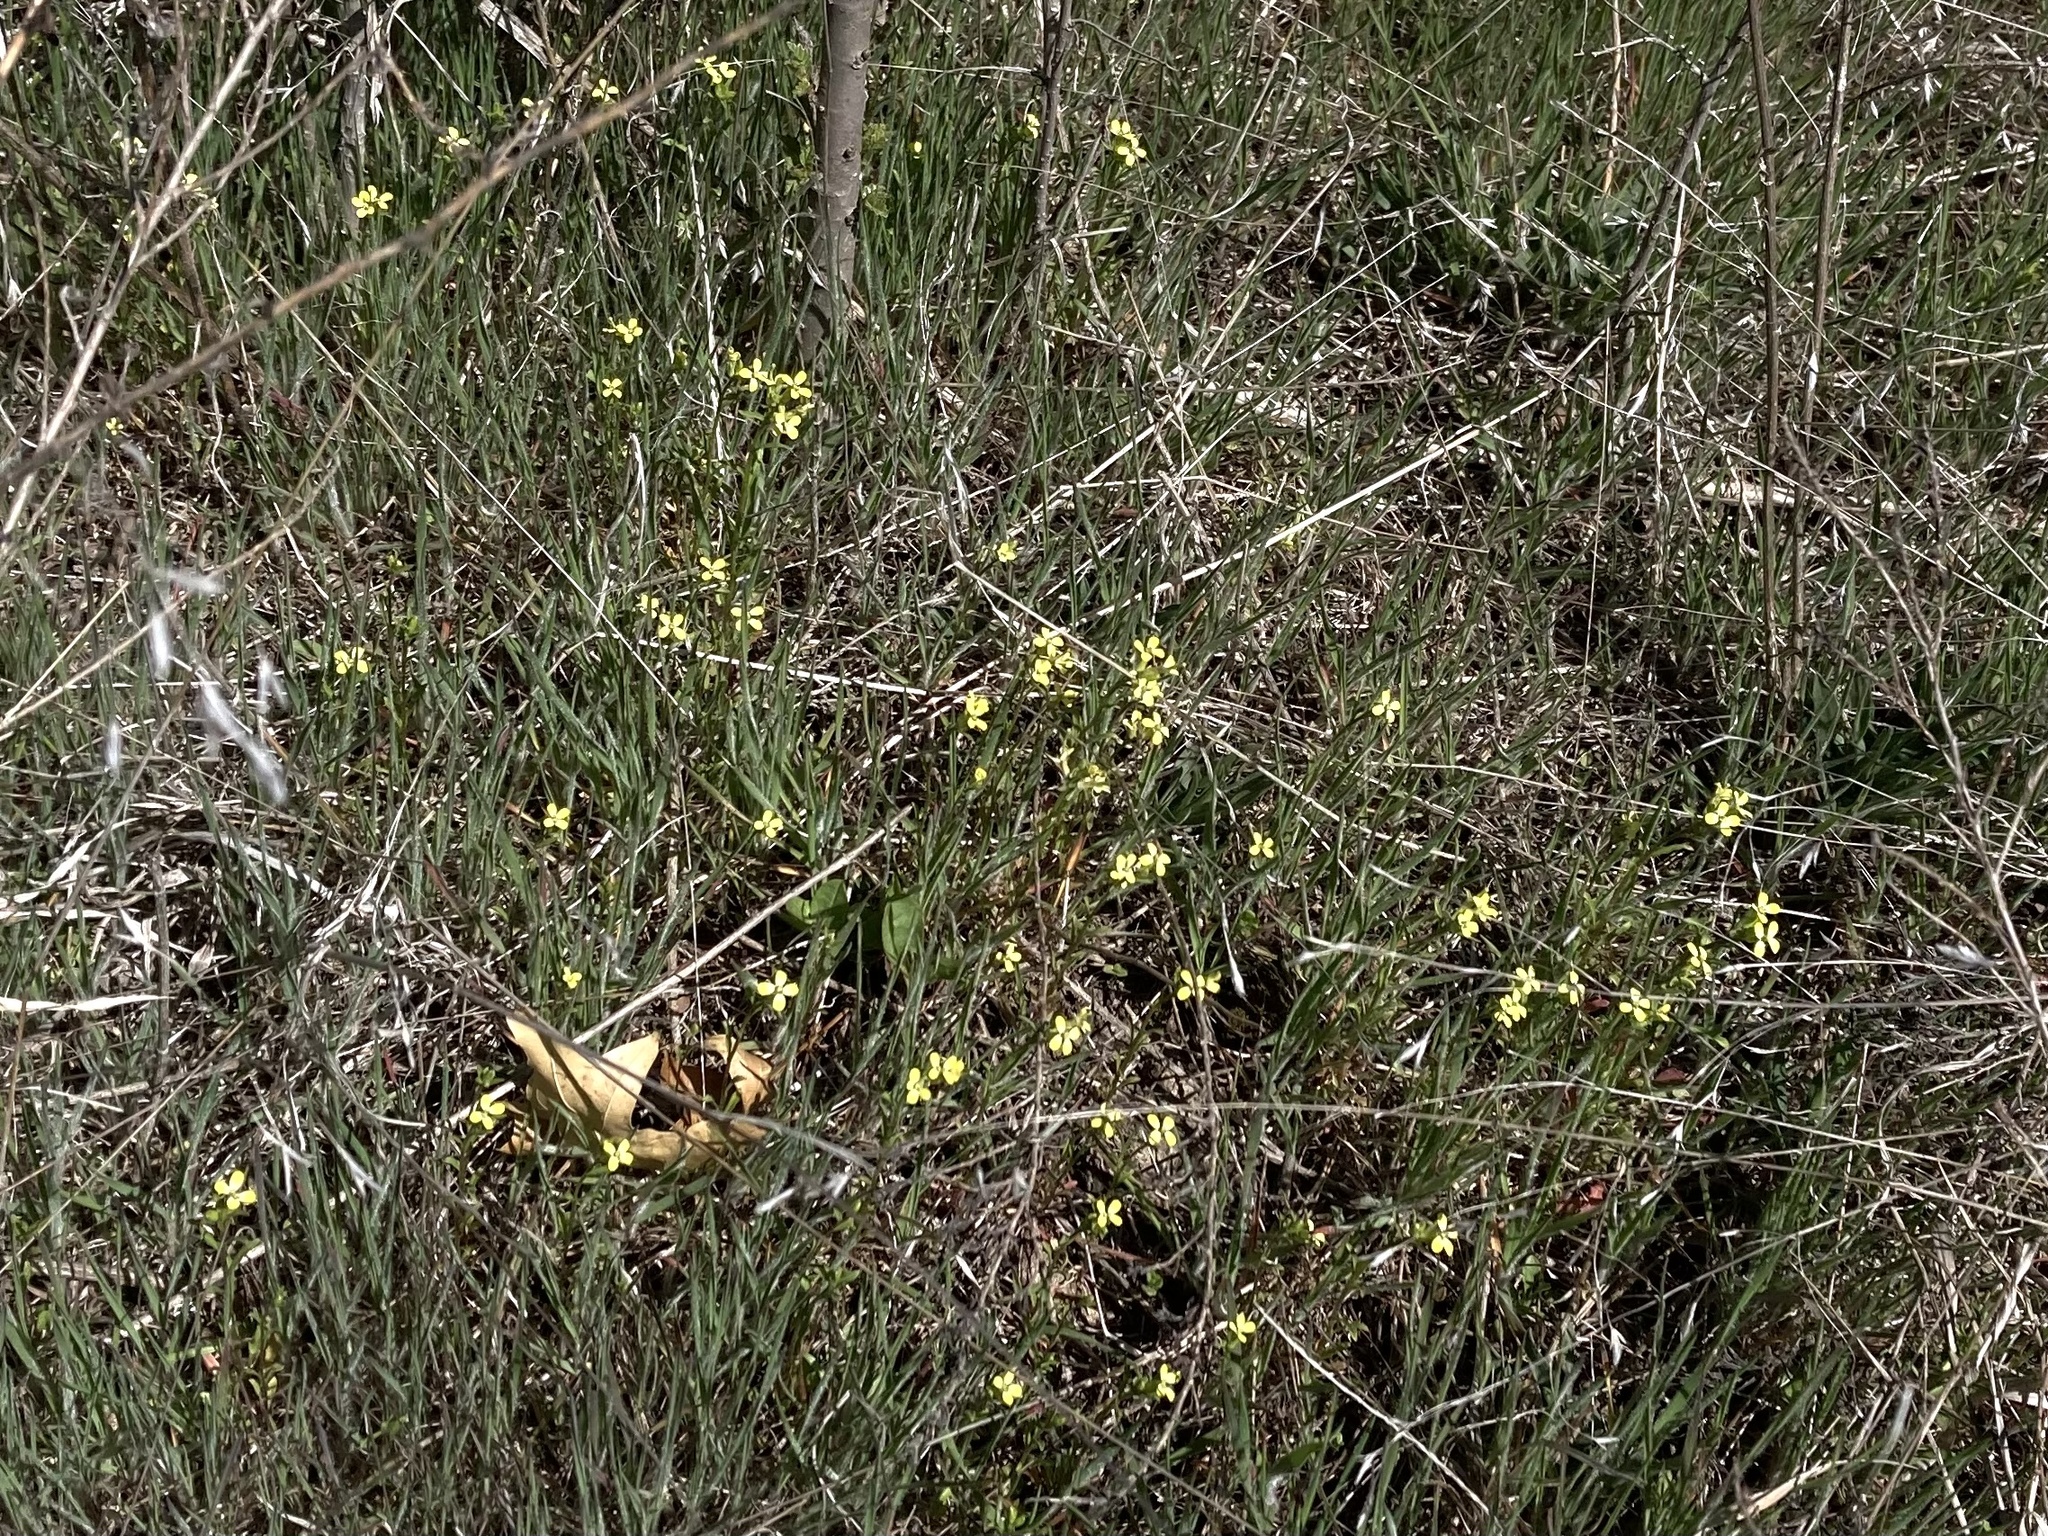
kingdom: Plantae
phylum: Tracheophyta
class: Magnoliopsida
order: Malpighiales
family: Linaceae
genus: Linum
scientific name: Linum sulcatum
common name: Grooved flax
